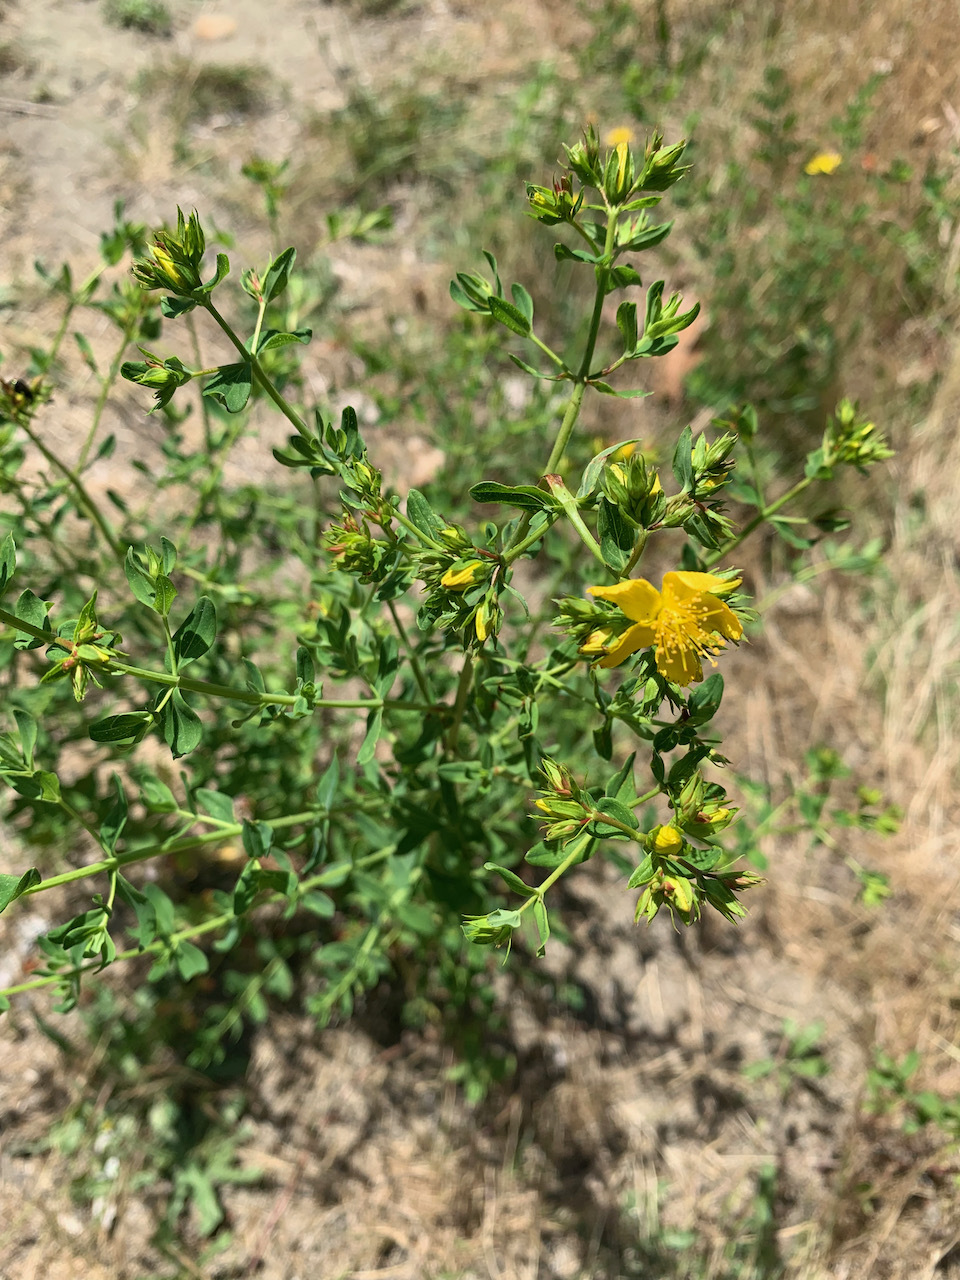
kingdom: Plantae
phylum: Tracheophyta
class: Magnoliopsida
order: Malpighiales
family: Hypericaceae
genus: Hypericum
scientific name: Hypericum perforatum
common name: Common st. johnswort
